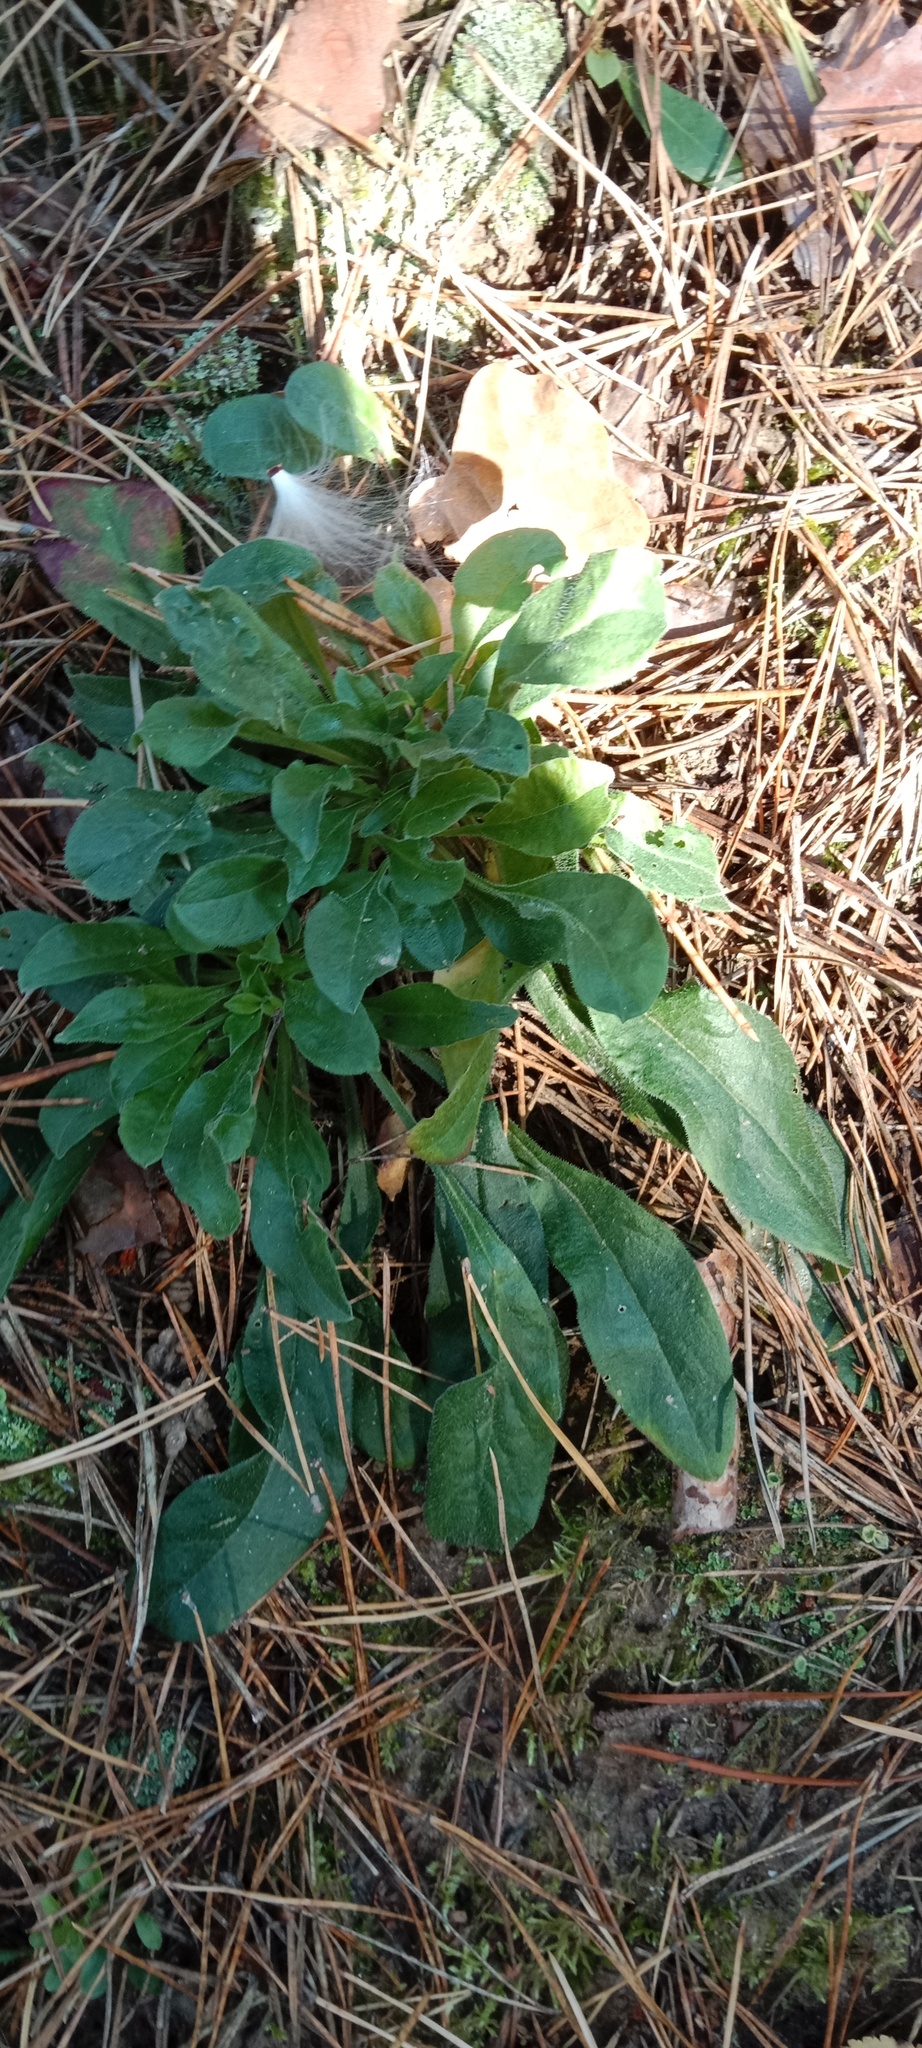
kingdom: Plantae
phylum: Tracheophyta
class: Magnoliopsida
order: Caryophyllales
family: Caryophyllaceae
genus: Silene
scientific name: Silene nutans
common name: Nottingham catchfly
